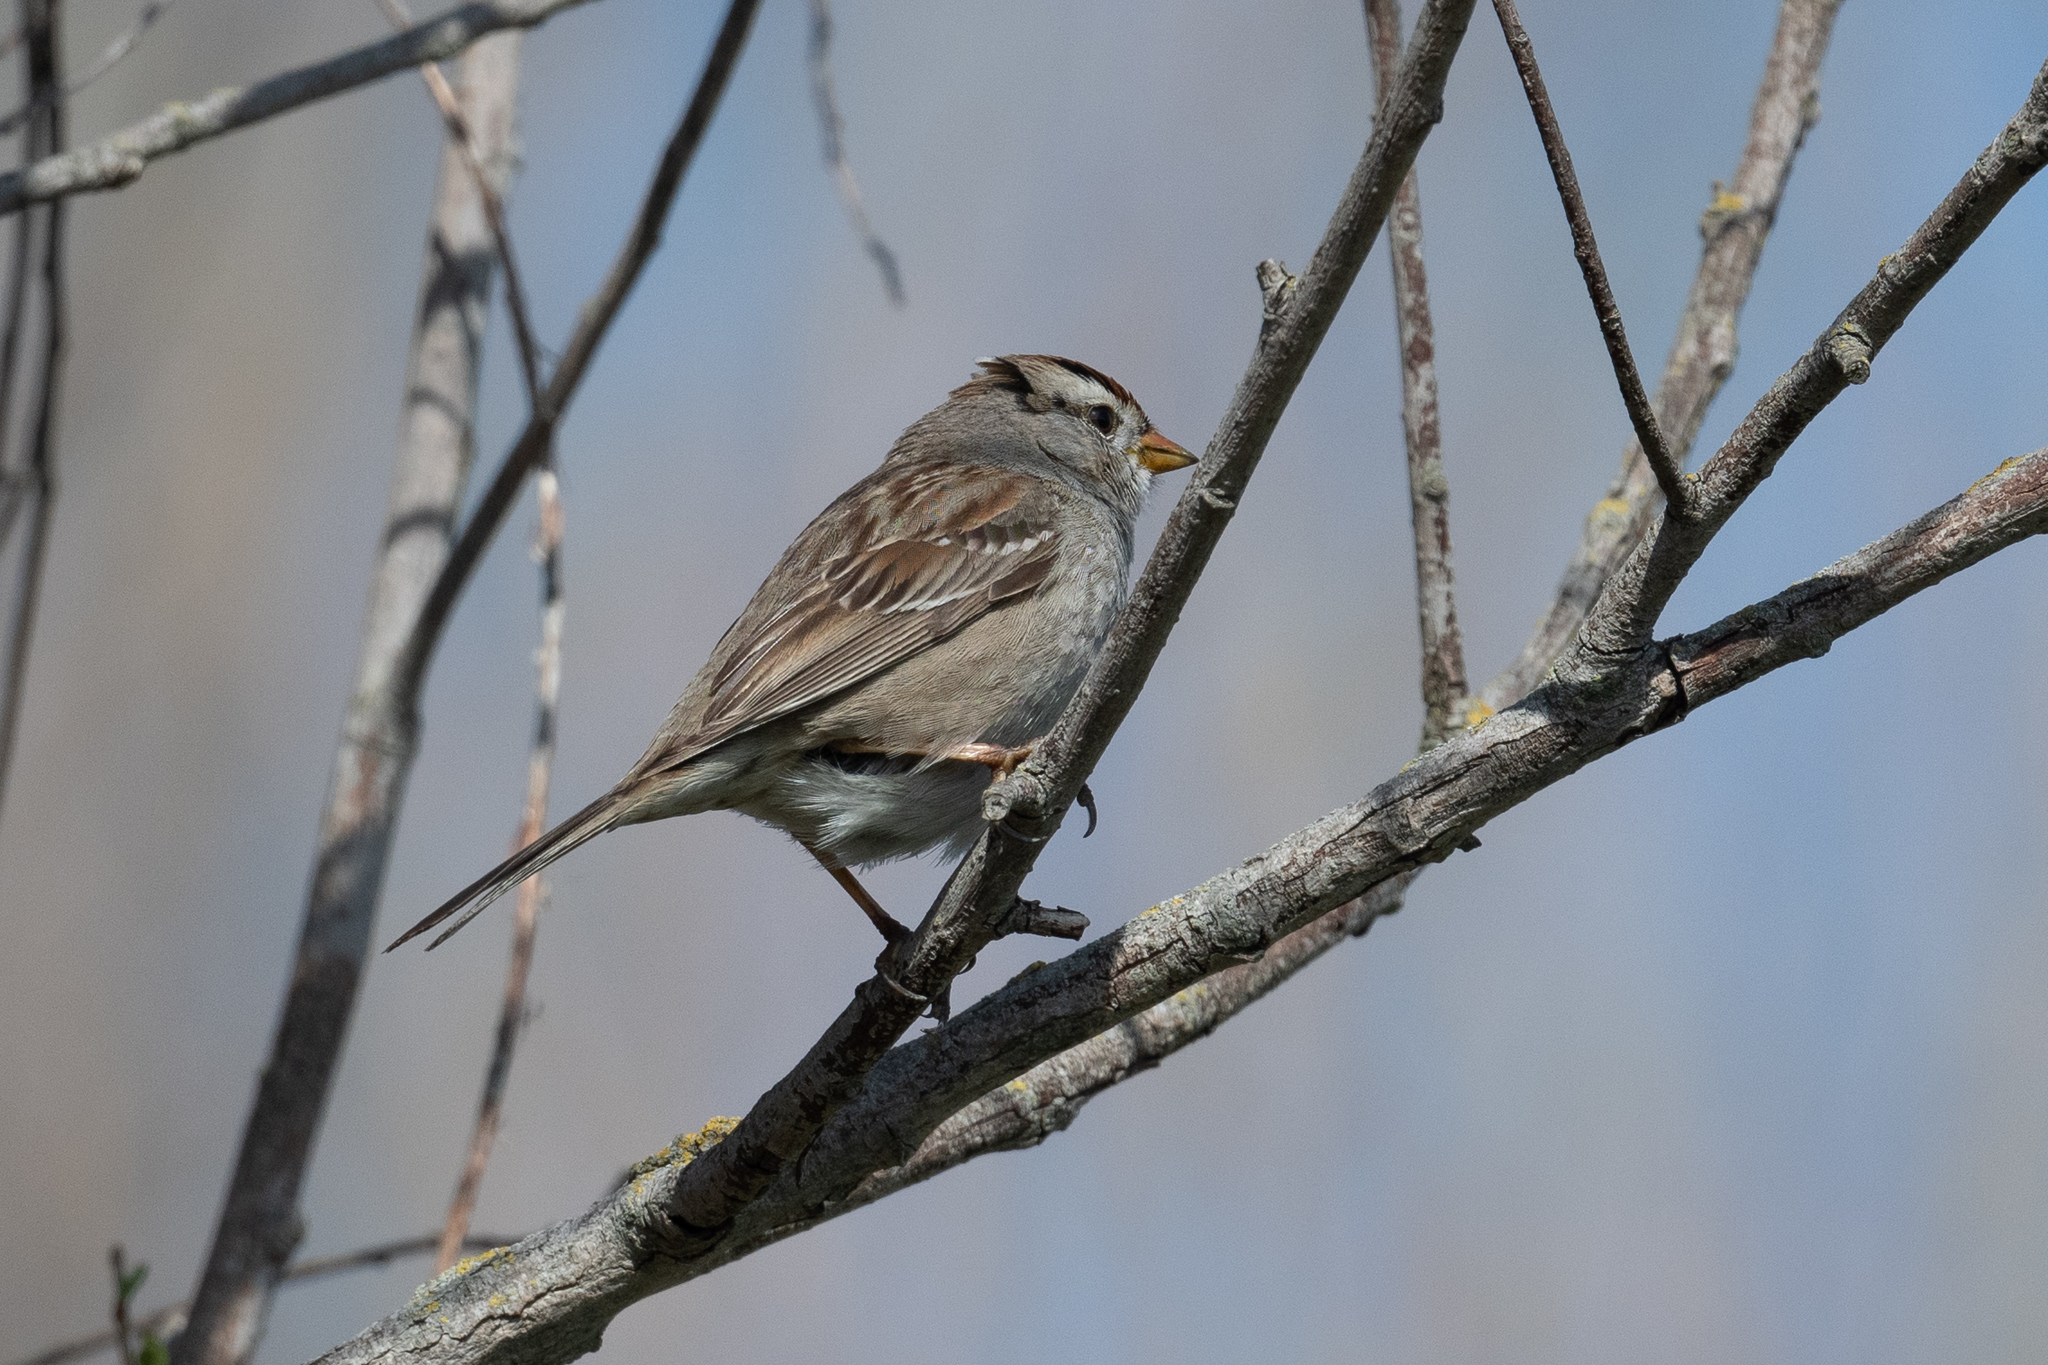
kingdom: Animalia
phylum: Chordata
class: Aves
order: Passeriformes
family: Passerellidae
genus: Zonotrichia
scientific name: Zonotrichia leucophrys
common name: White-crowned sparrow
